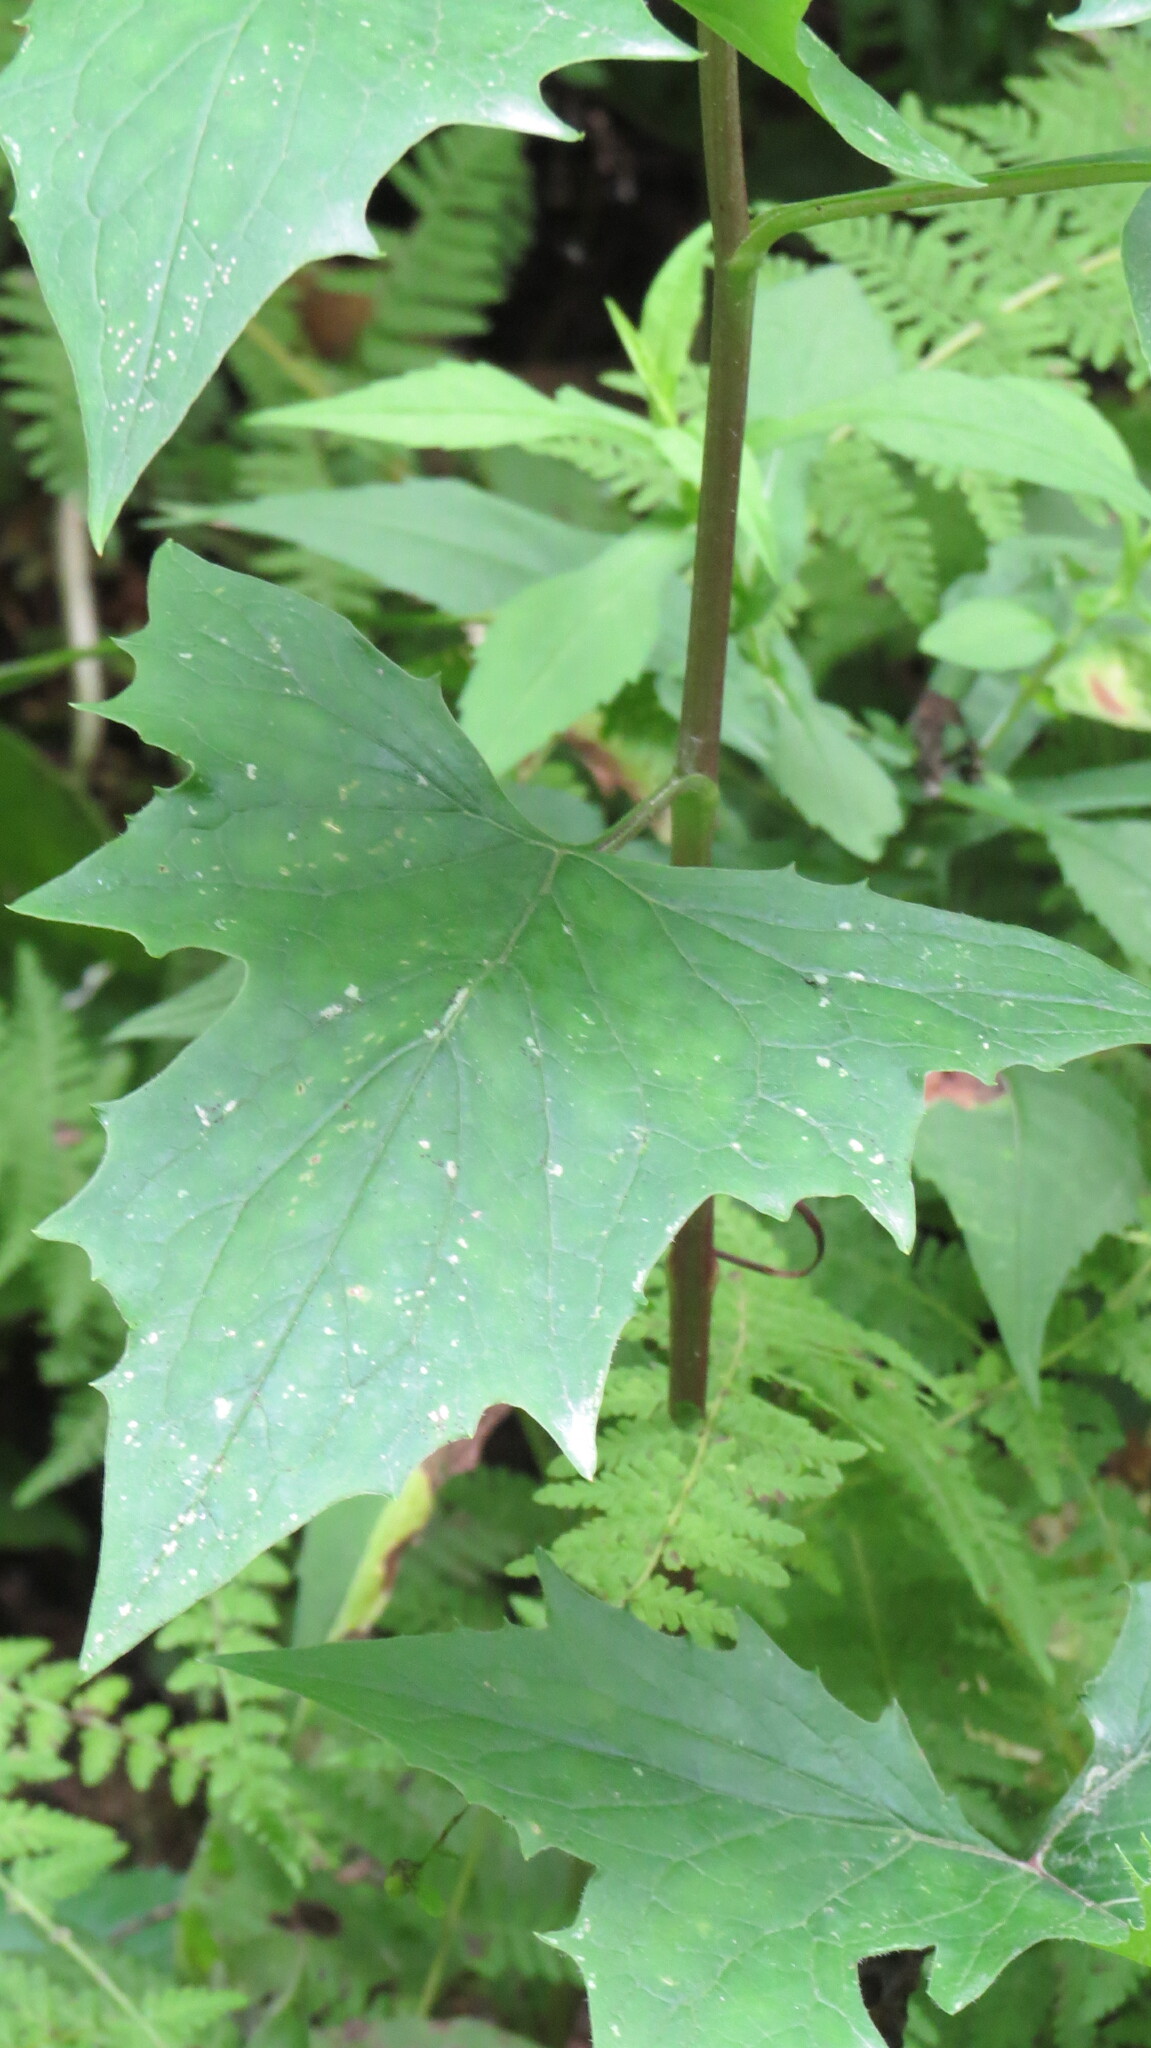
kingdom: Plantae
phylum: Tracheophyta
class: Magnoliopsida
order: Asterales
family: Asteraceae
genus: Nabalus
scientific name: Nabalus albus
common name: White rattlesnakeroot
